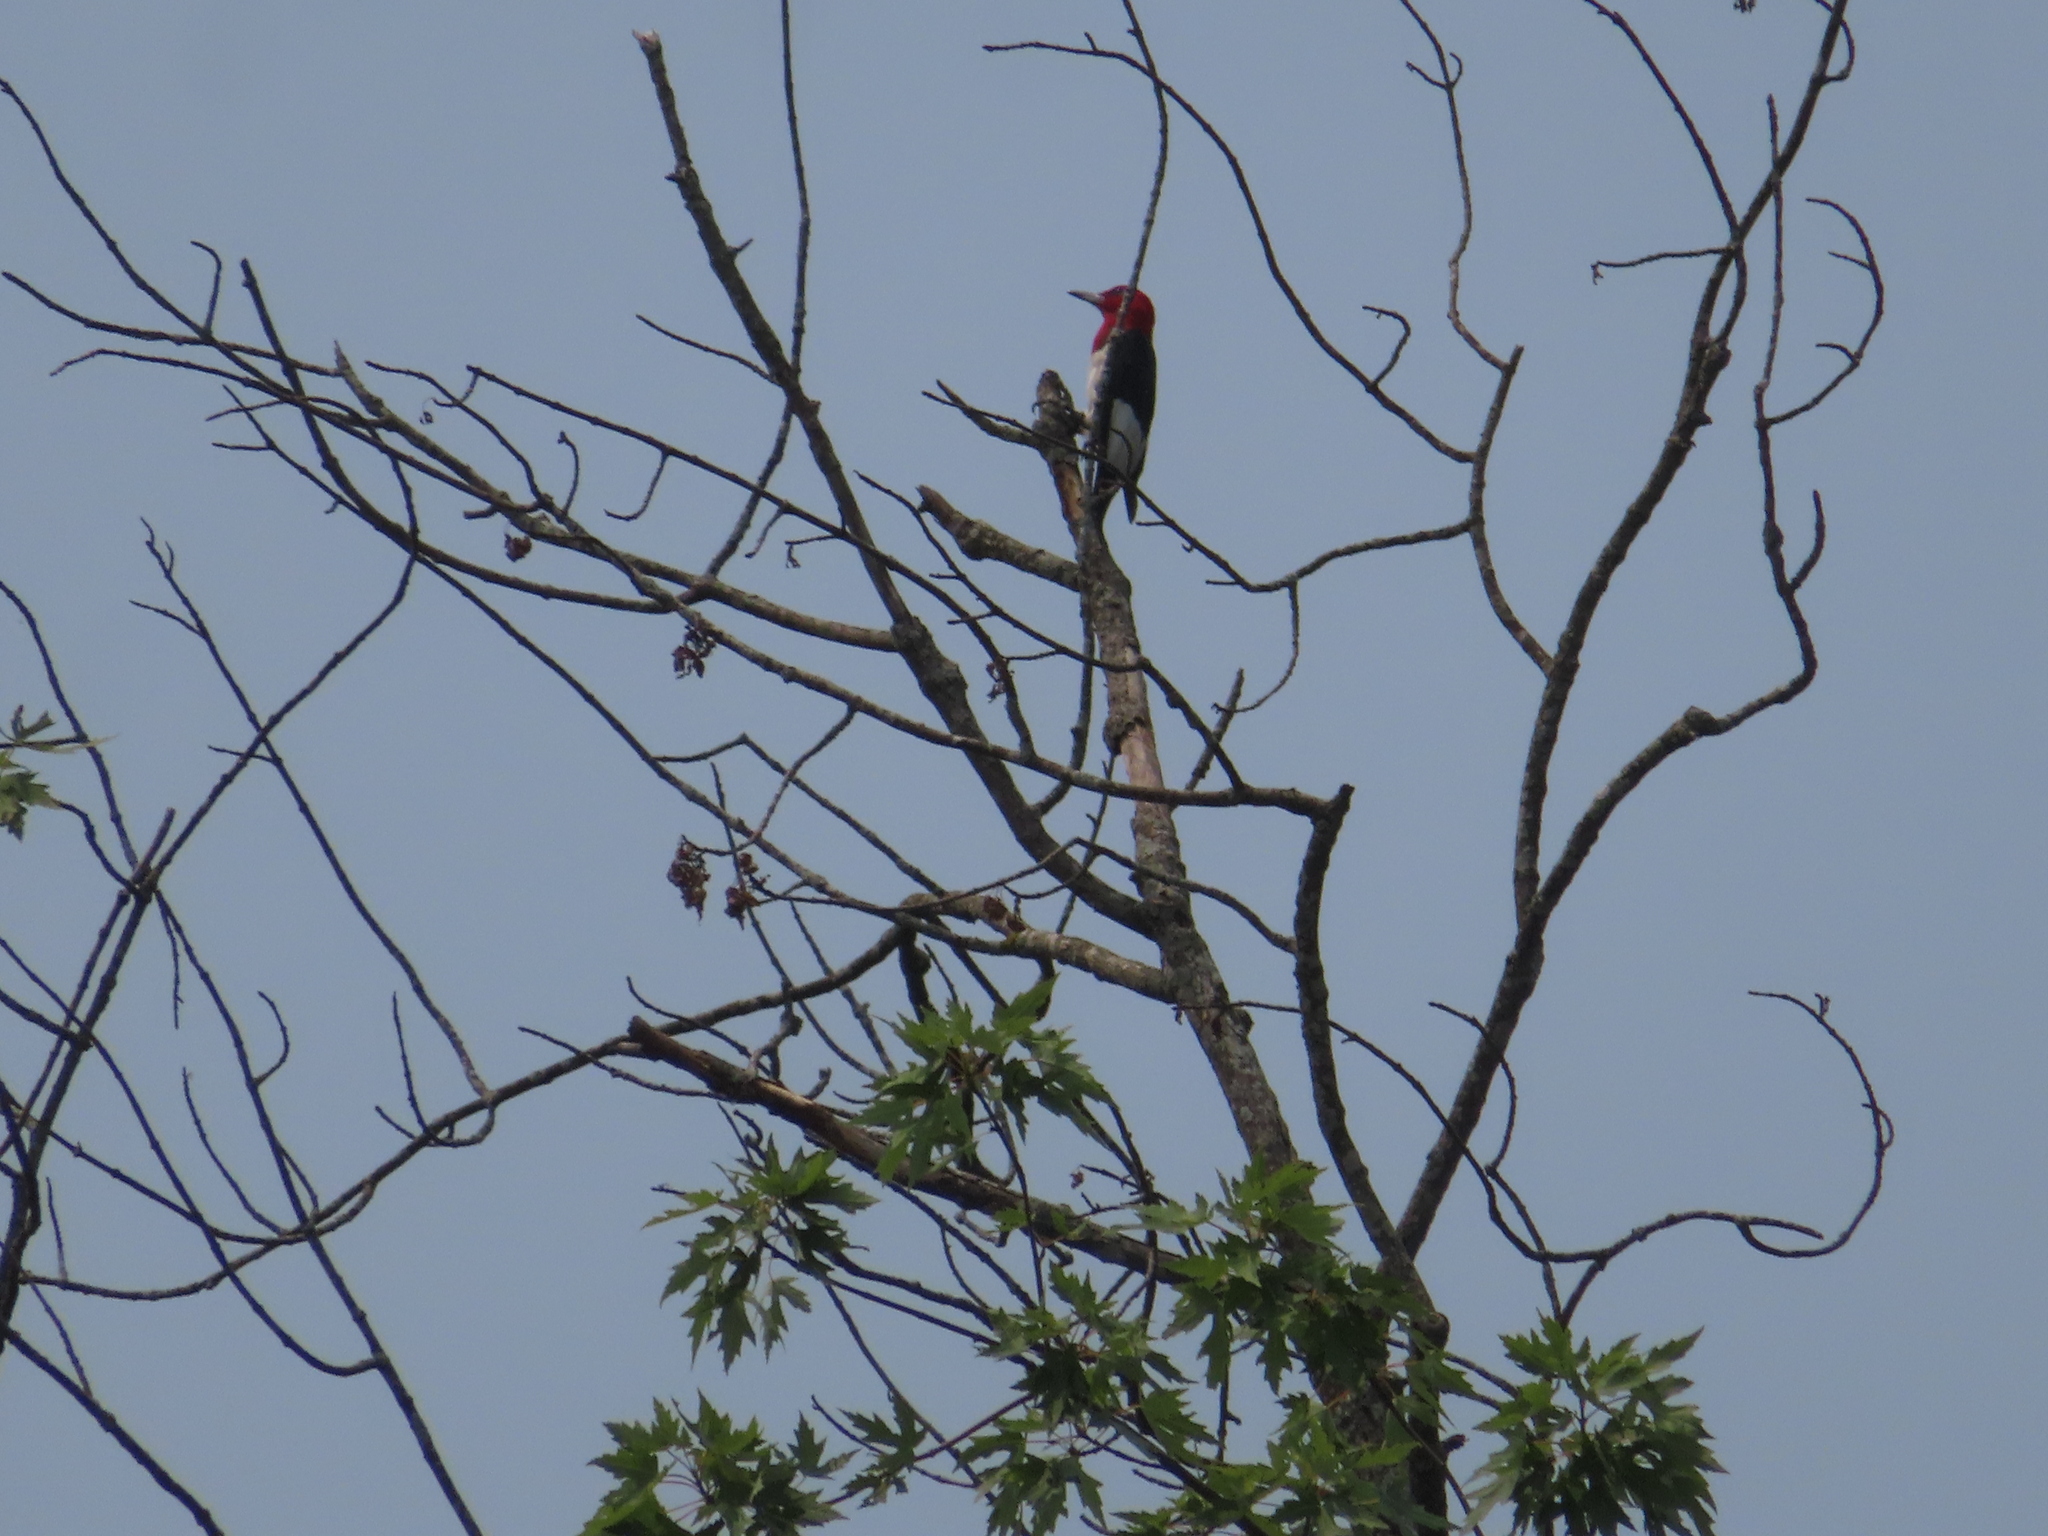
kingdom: Animalia
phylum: Chordata
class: Aves
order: Piciformes
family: Picidae
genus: Melanerpes
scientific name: Melanerpes erythrocephalus
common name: Red-headed woodpecker
